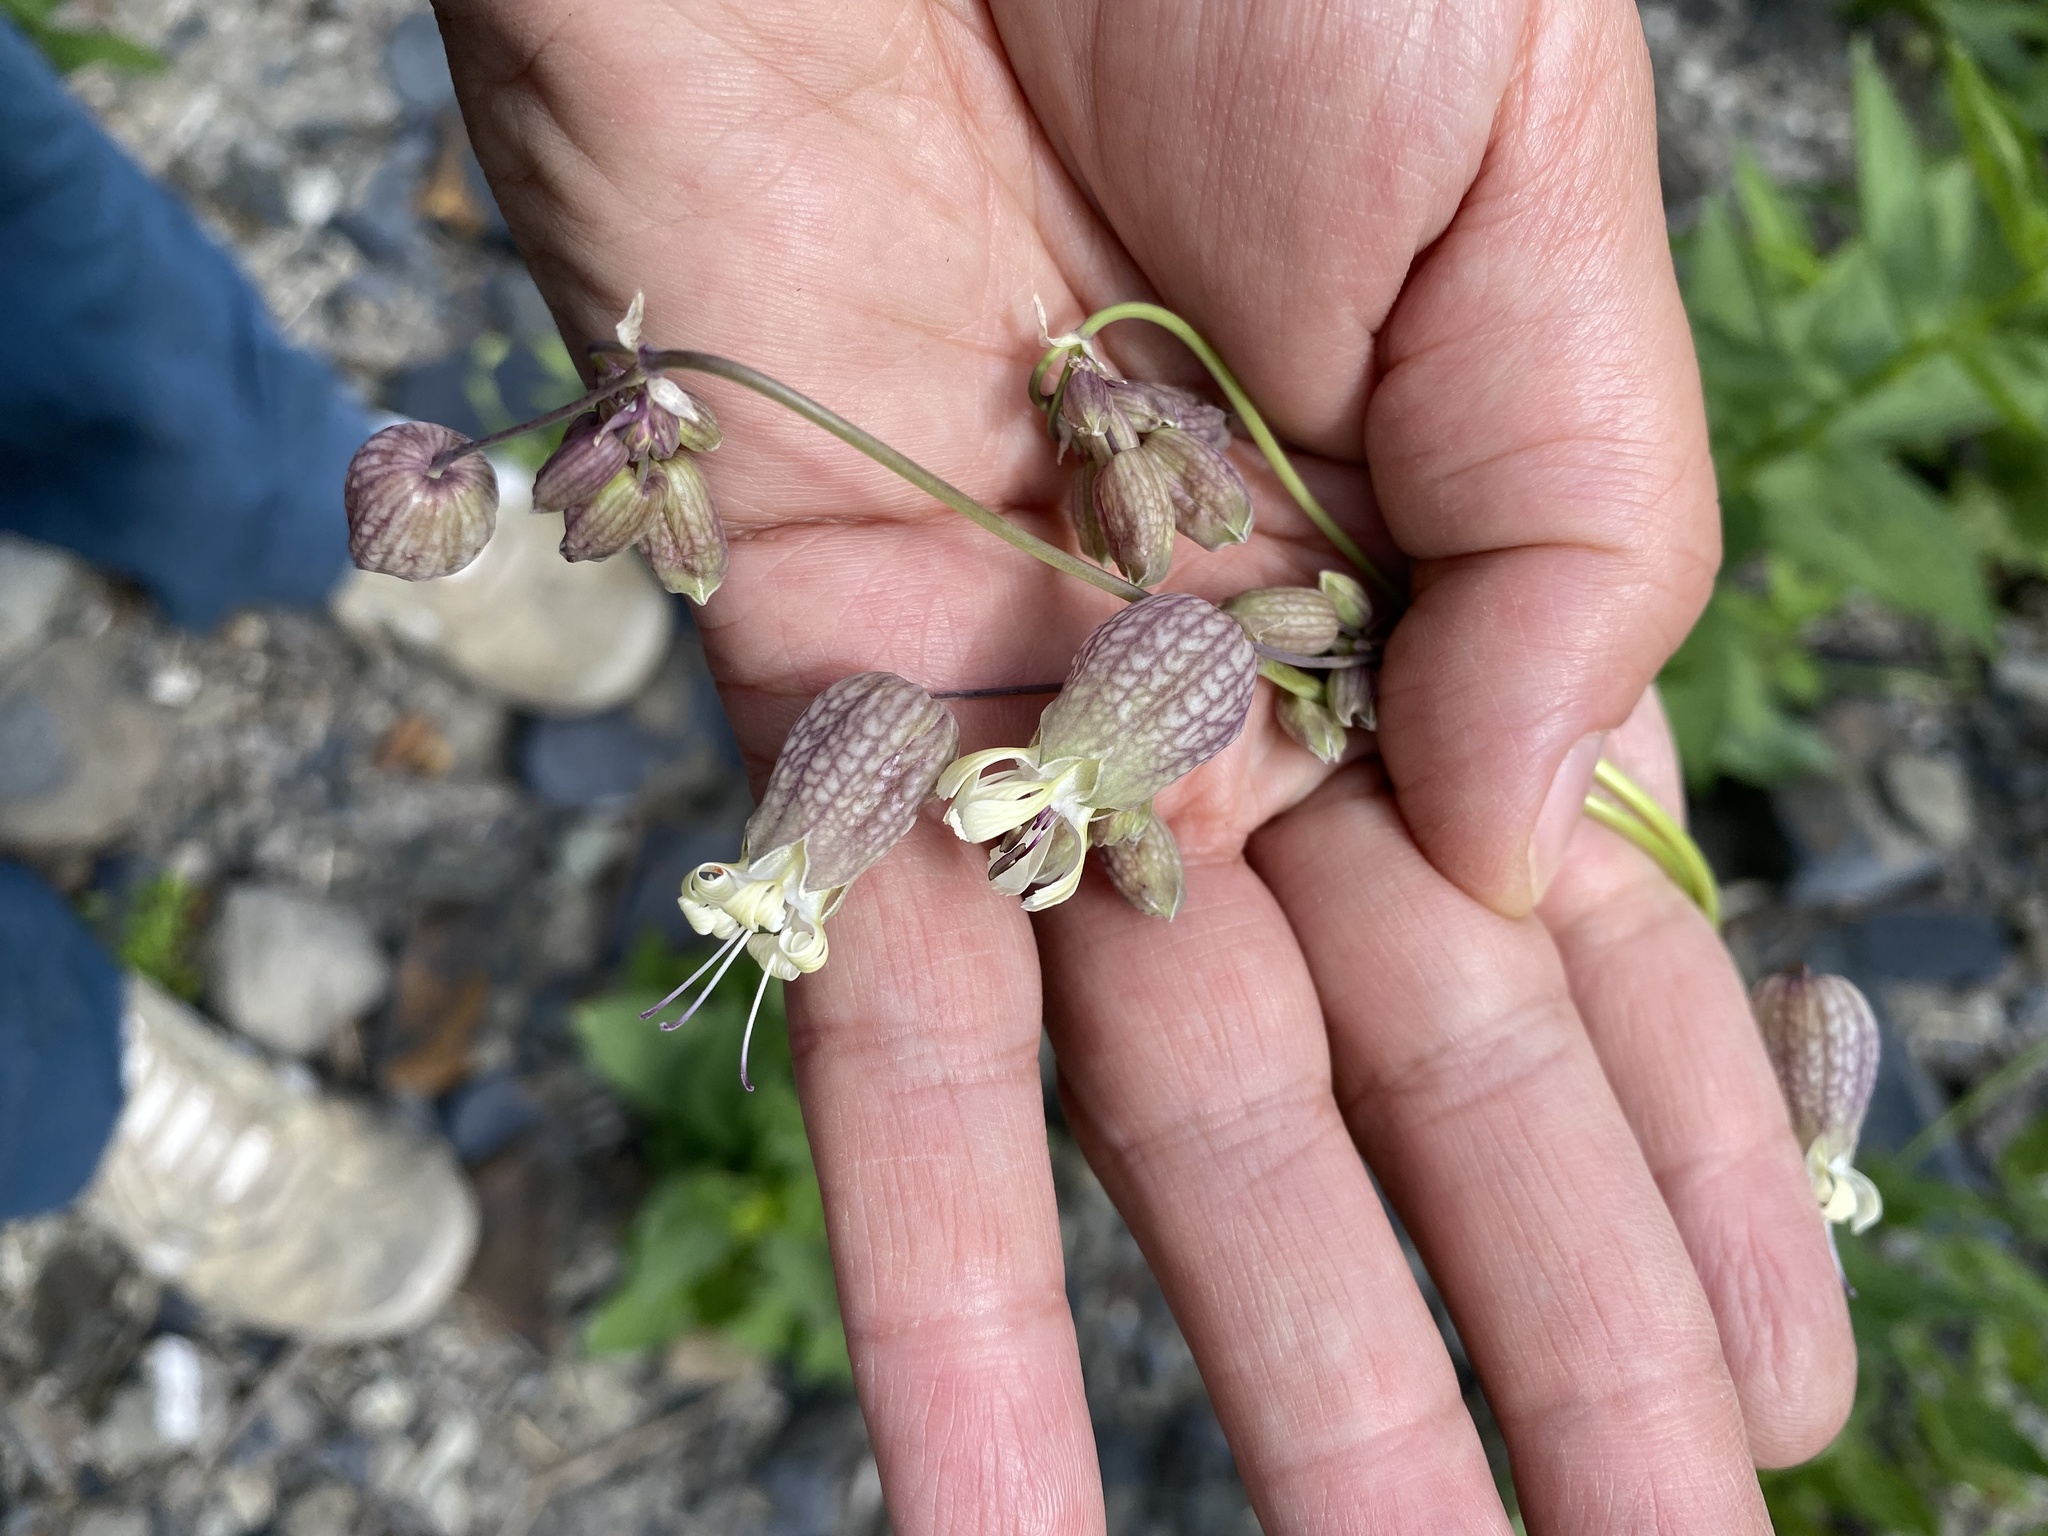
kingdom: Plantae
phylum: Tracheophyta
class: Magnoliopsida
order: Caryophyllales
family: Caryophyllaceae
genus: Silene
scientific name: Silene vulgaris
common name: Bladder campion
